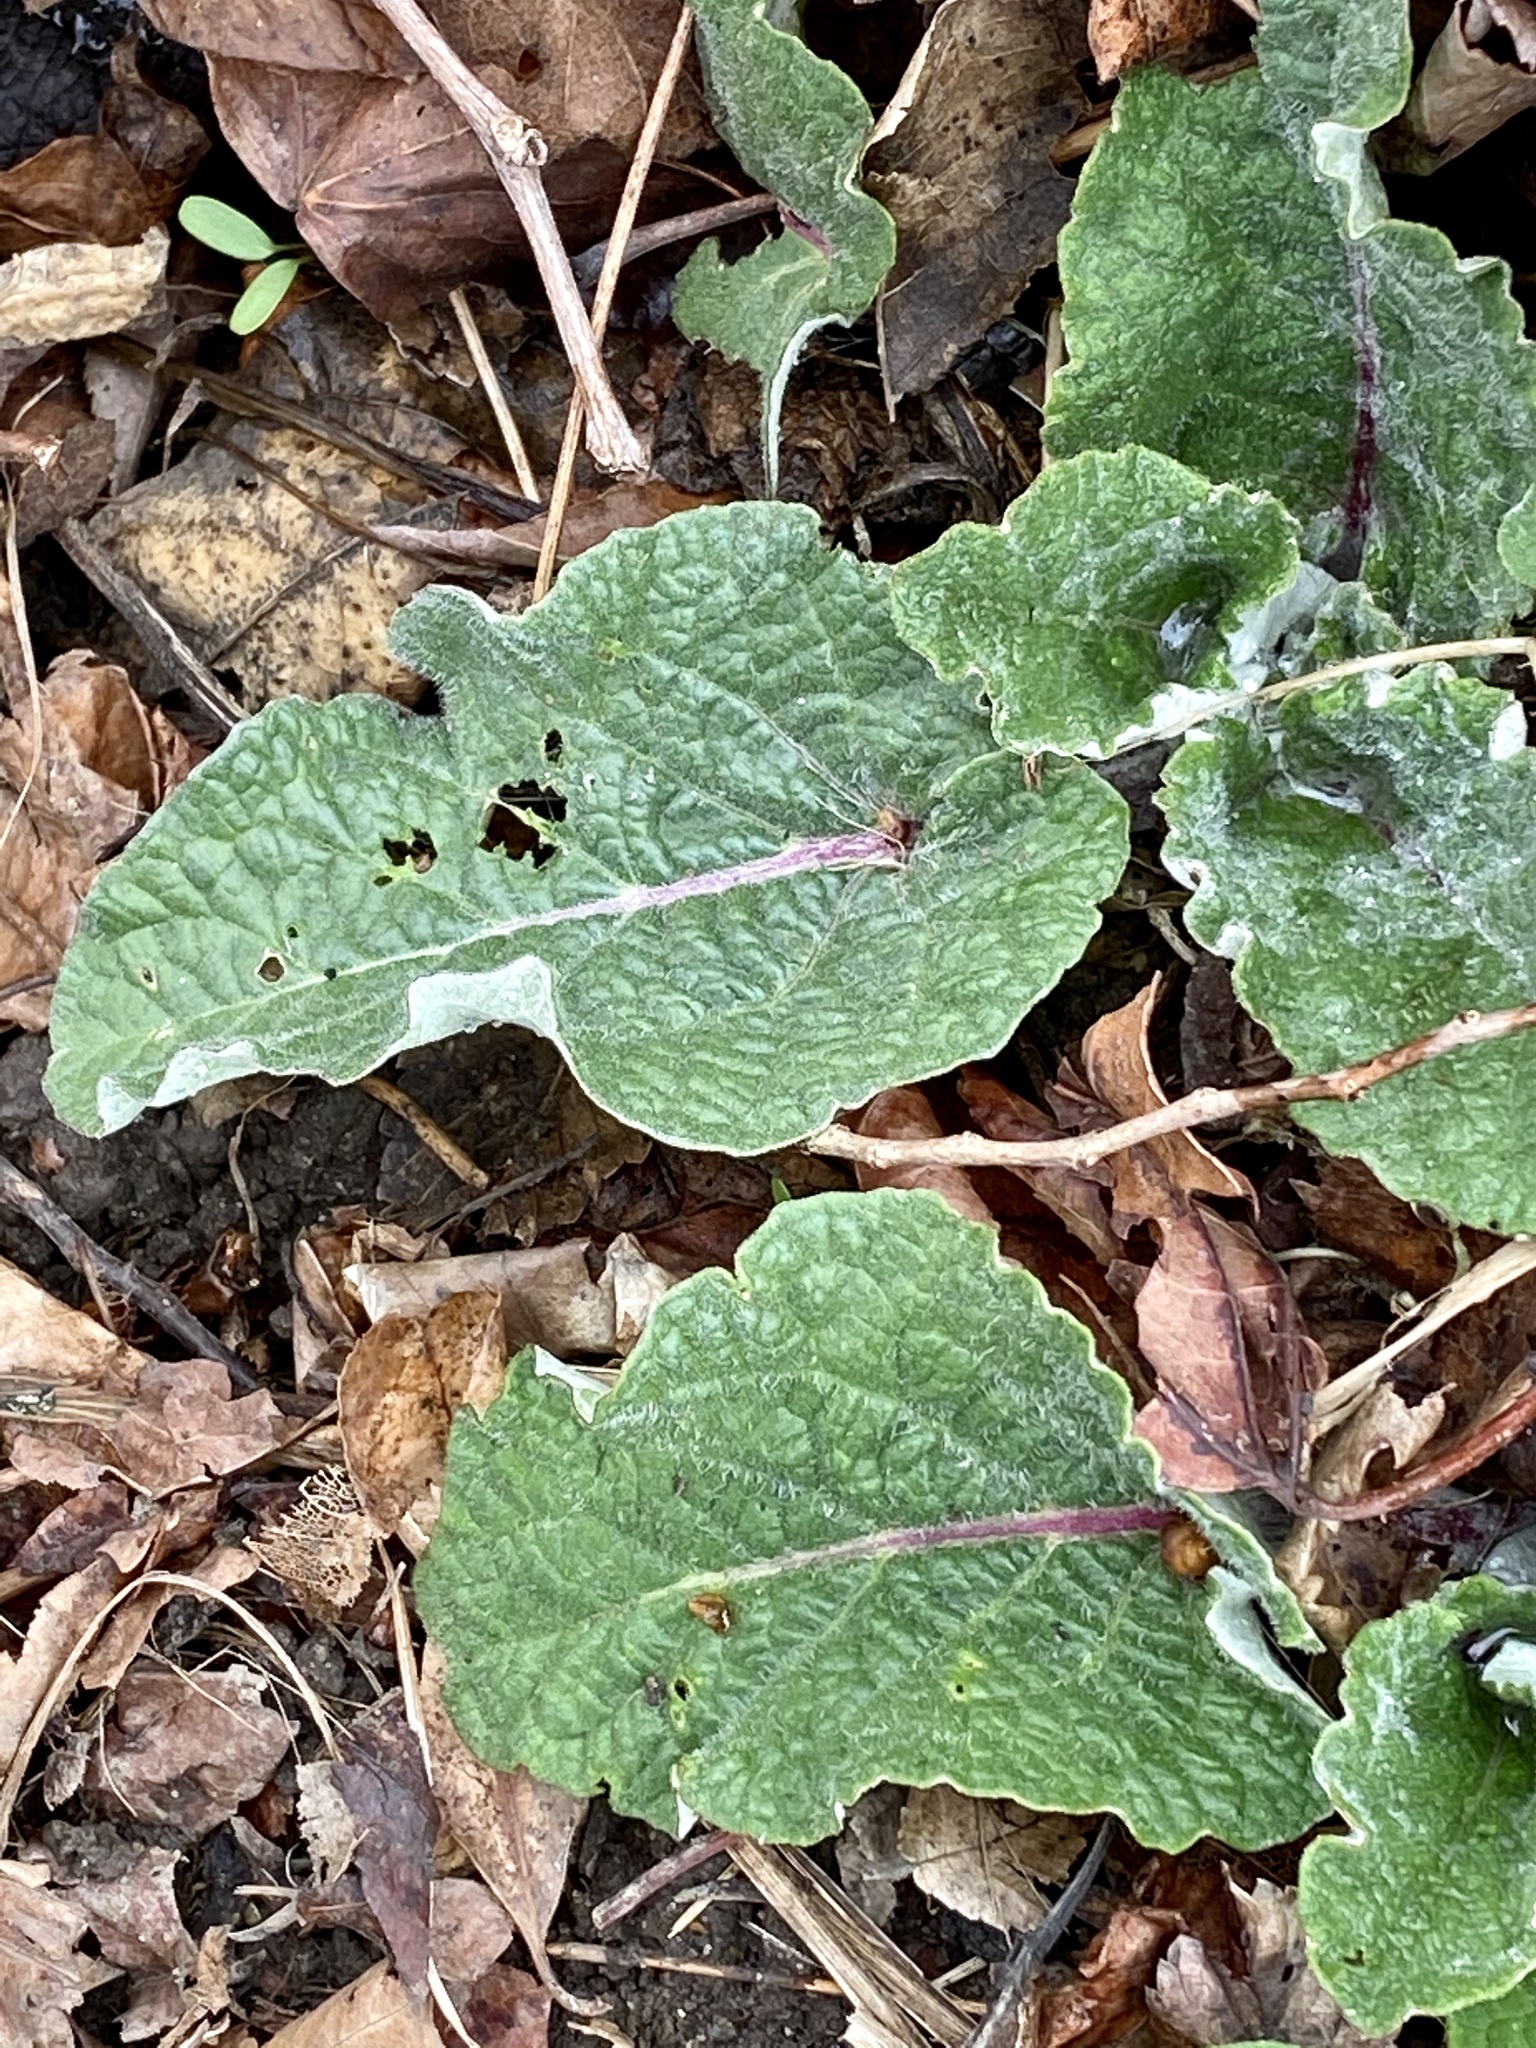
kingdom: Plantae
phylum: Tracheophyta
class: Magnoliopsida
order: Asterales
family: Asteraceae
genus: Arctium
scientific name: Arctium
